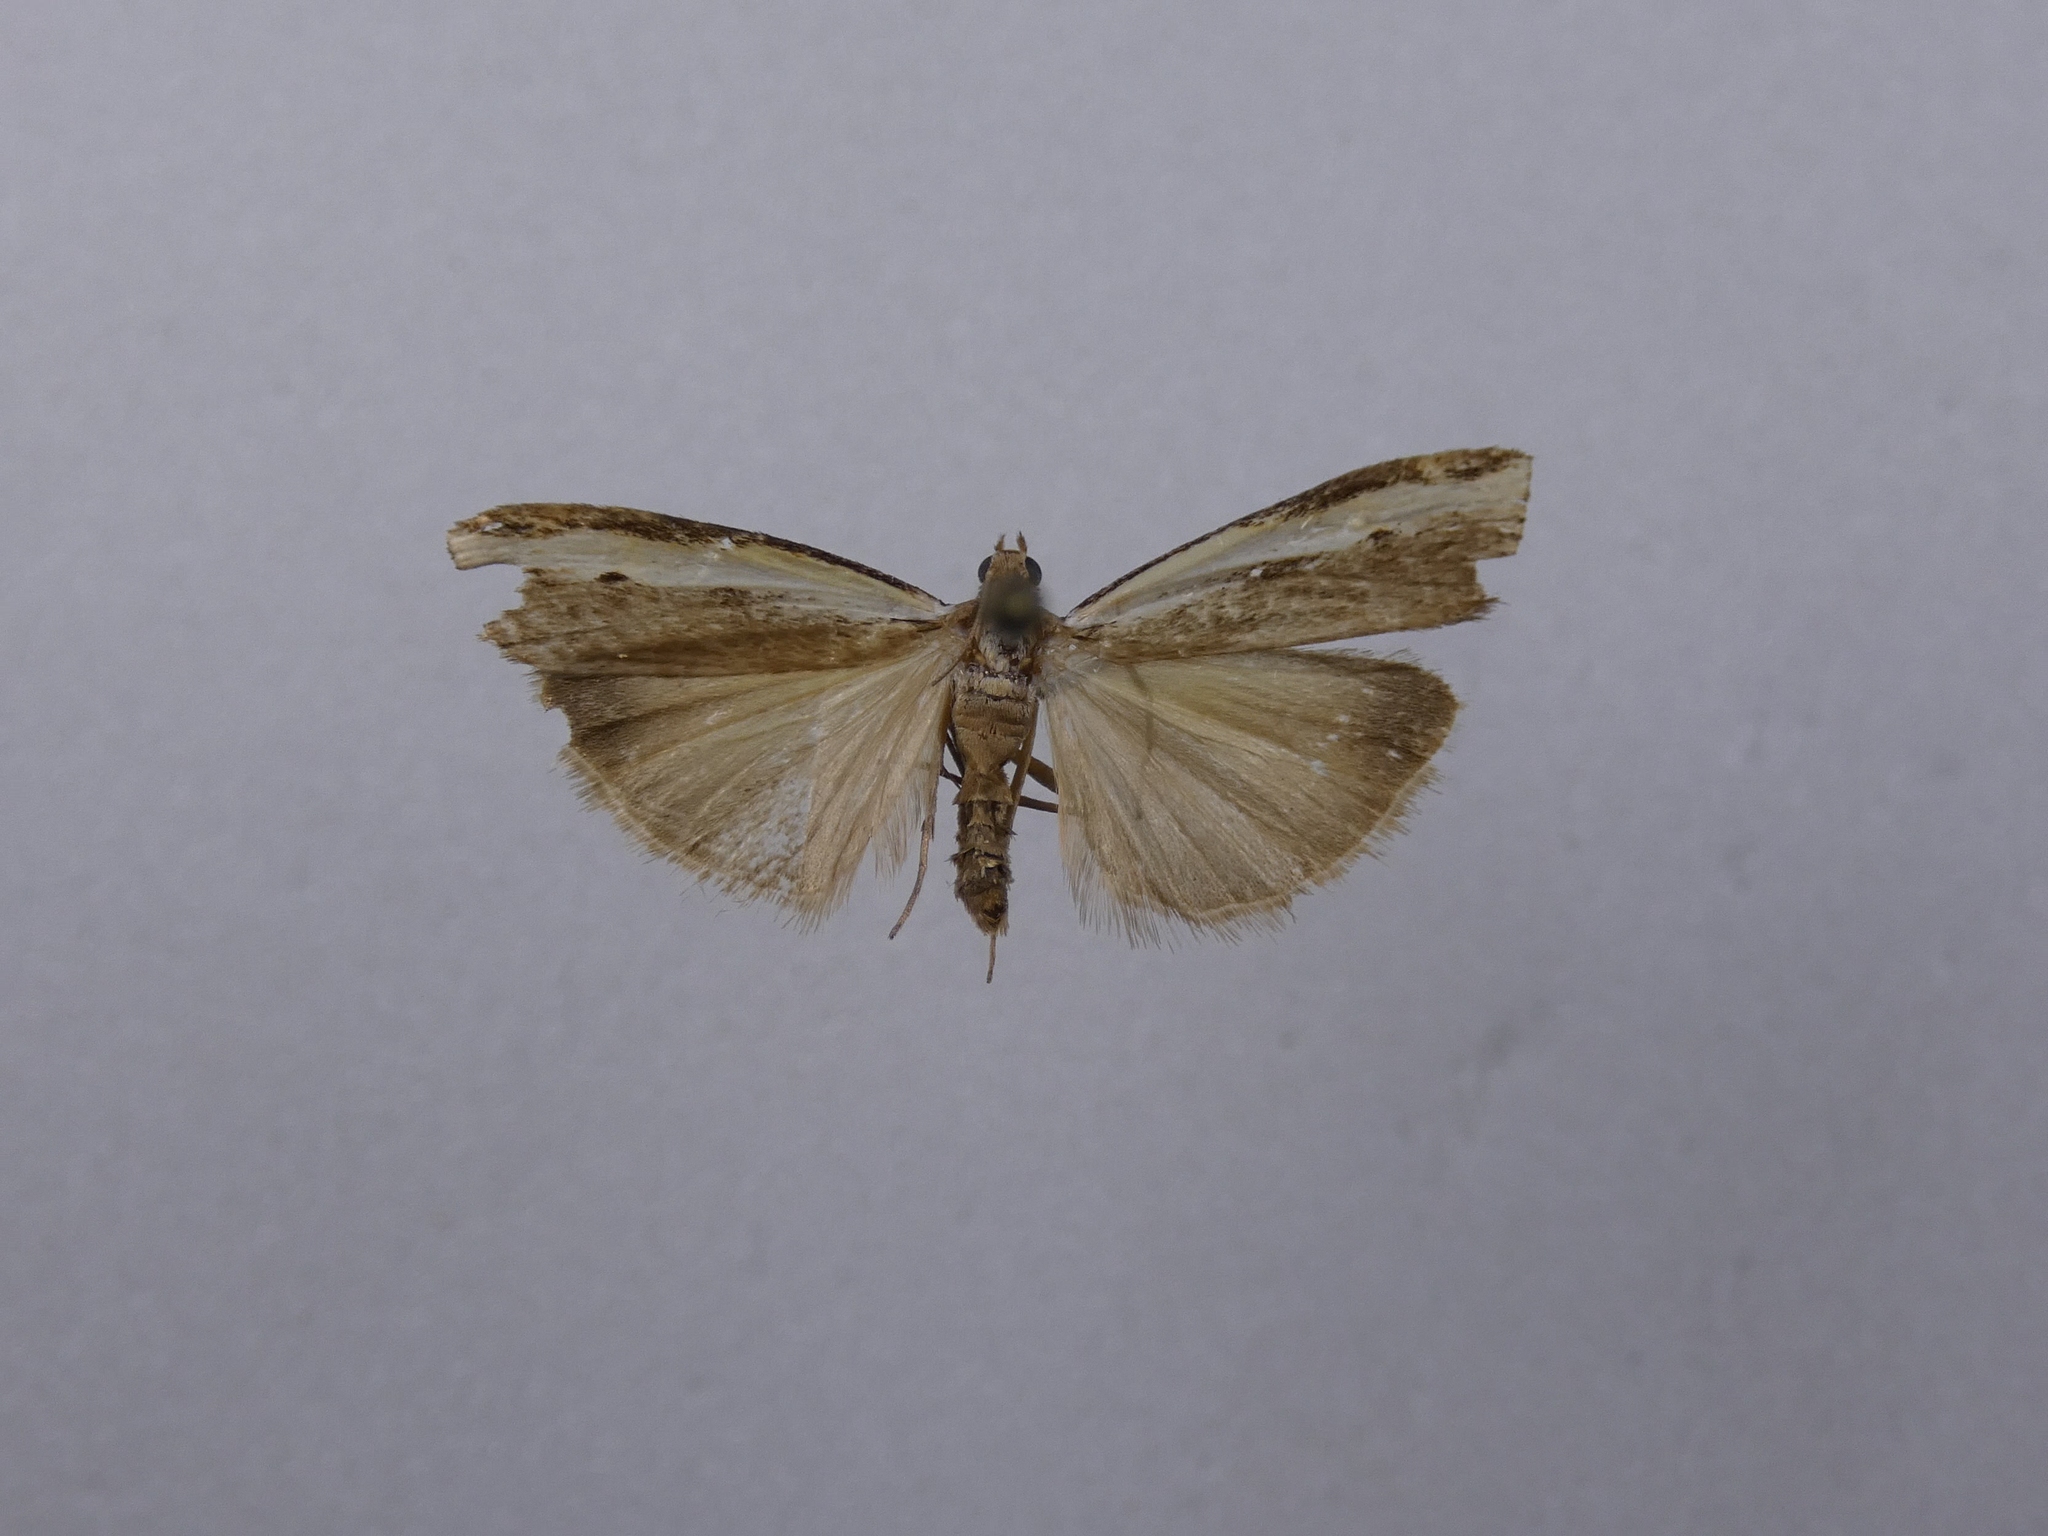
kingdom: Animalia
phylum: Arthropoda
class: Insecta
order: Lepidoptera
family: Crambidae
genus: Orocrambus
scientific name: Orocrambus flexuosellus
